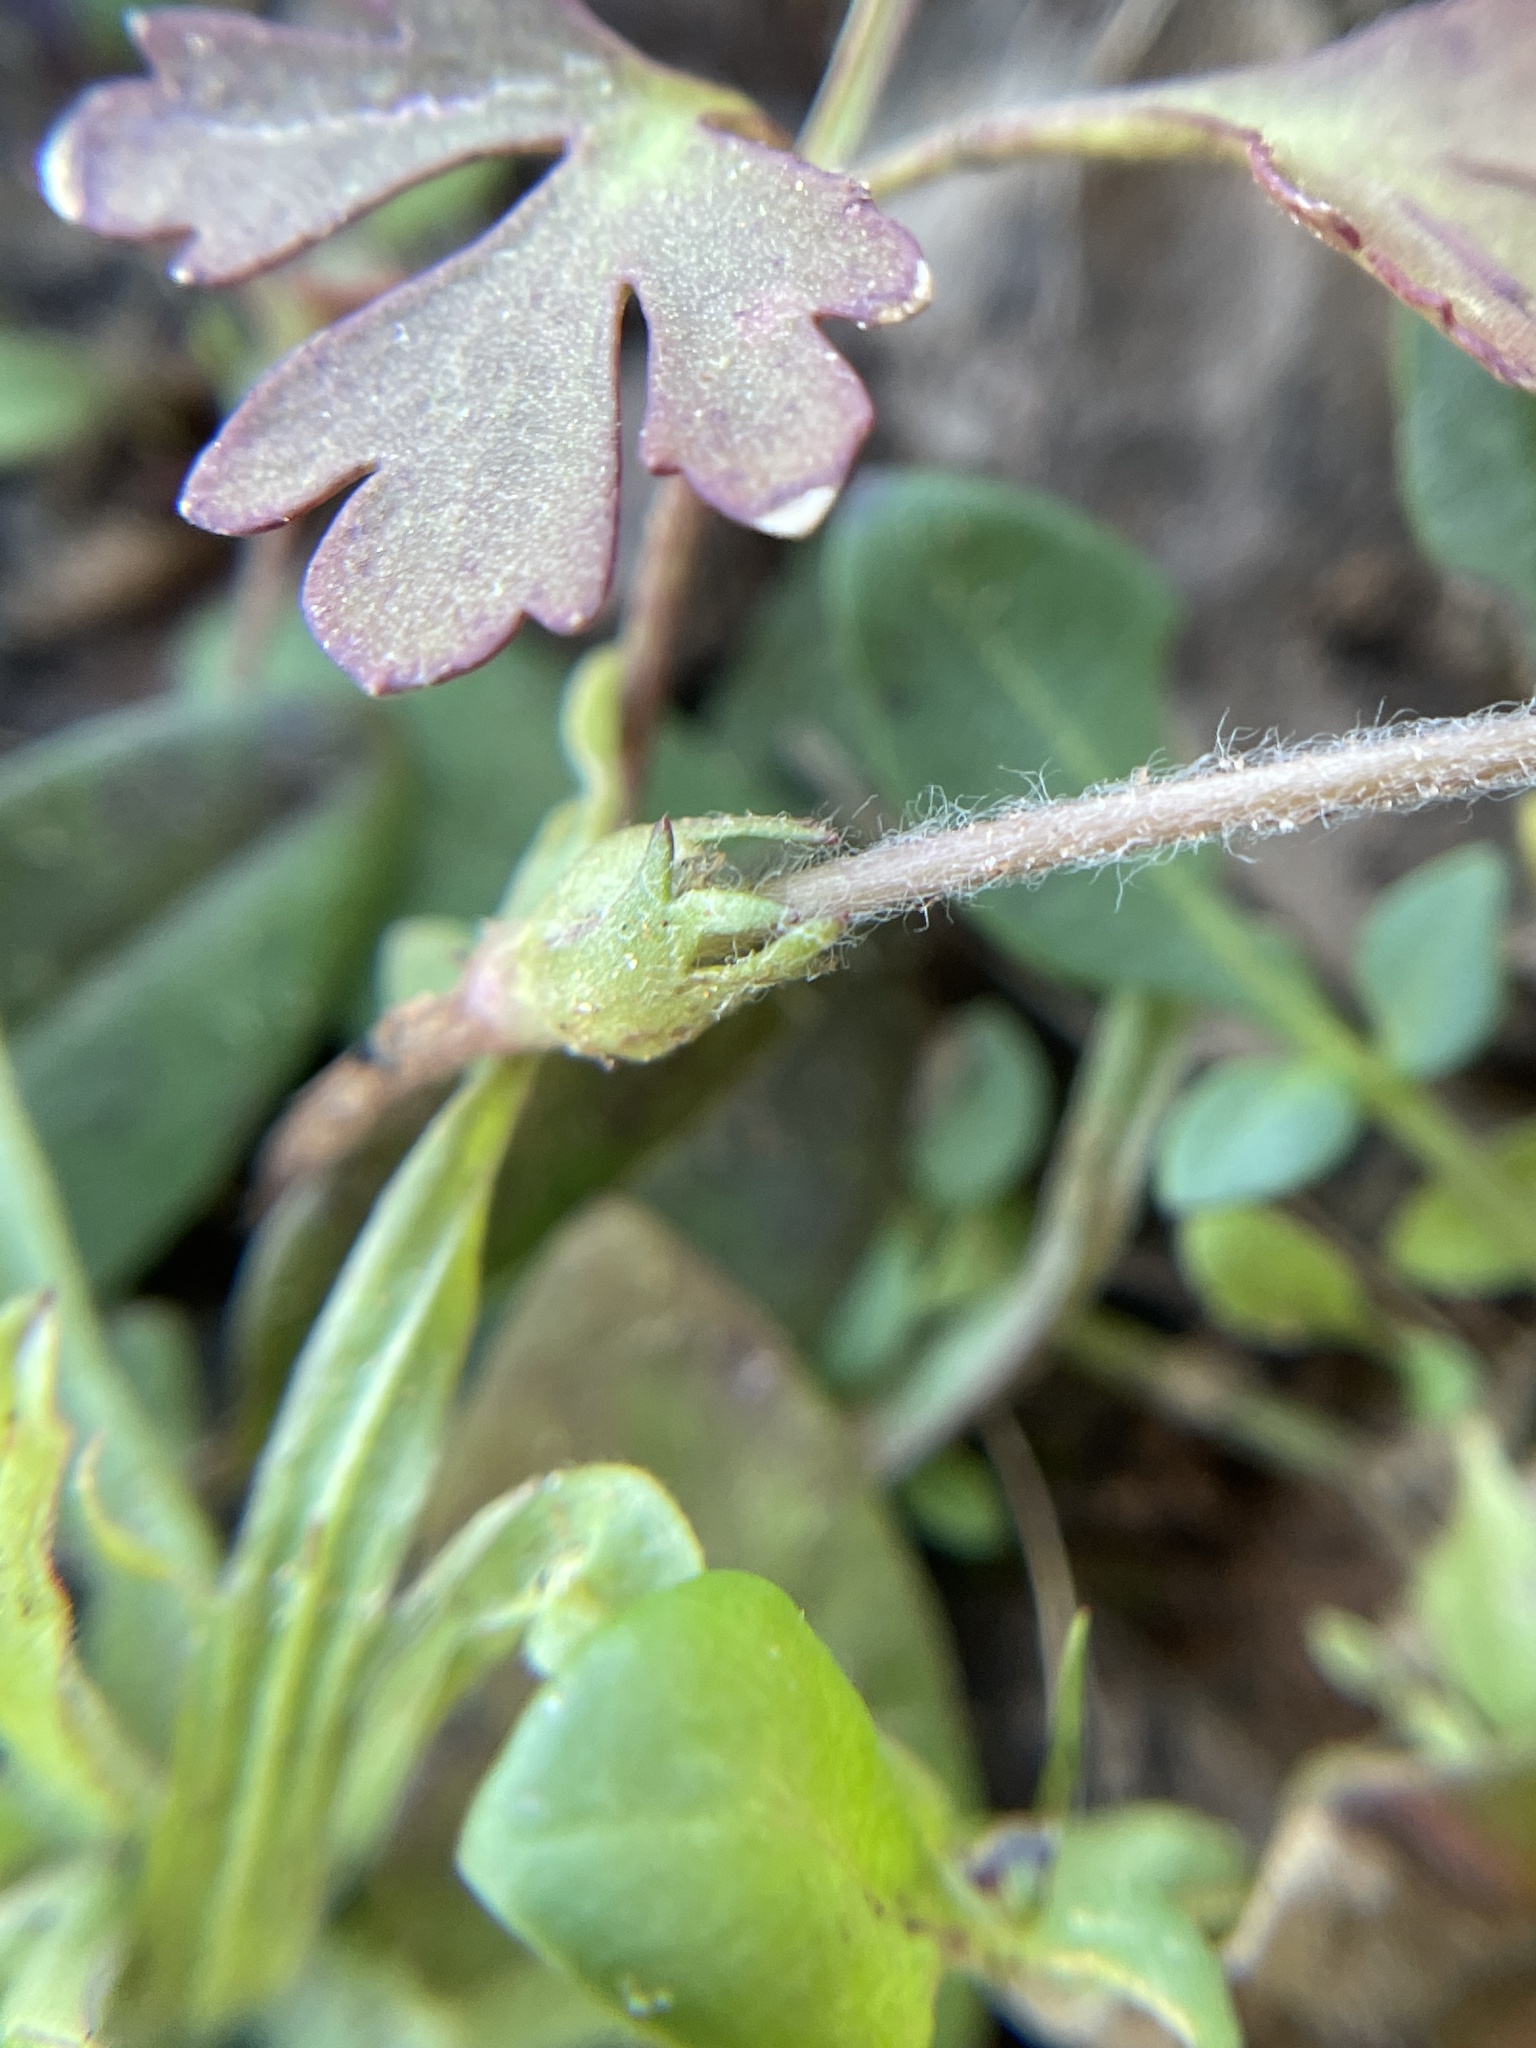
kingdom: Plantae
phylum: Tracheophyta
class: Magnoliopsida
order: Ranunculales
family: Ranunculaceae
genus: Anemone
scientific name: Anemone caroliniana
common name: Carolina anemone
